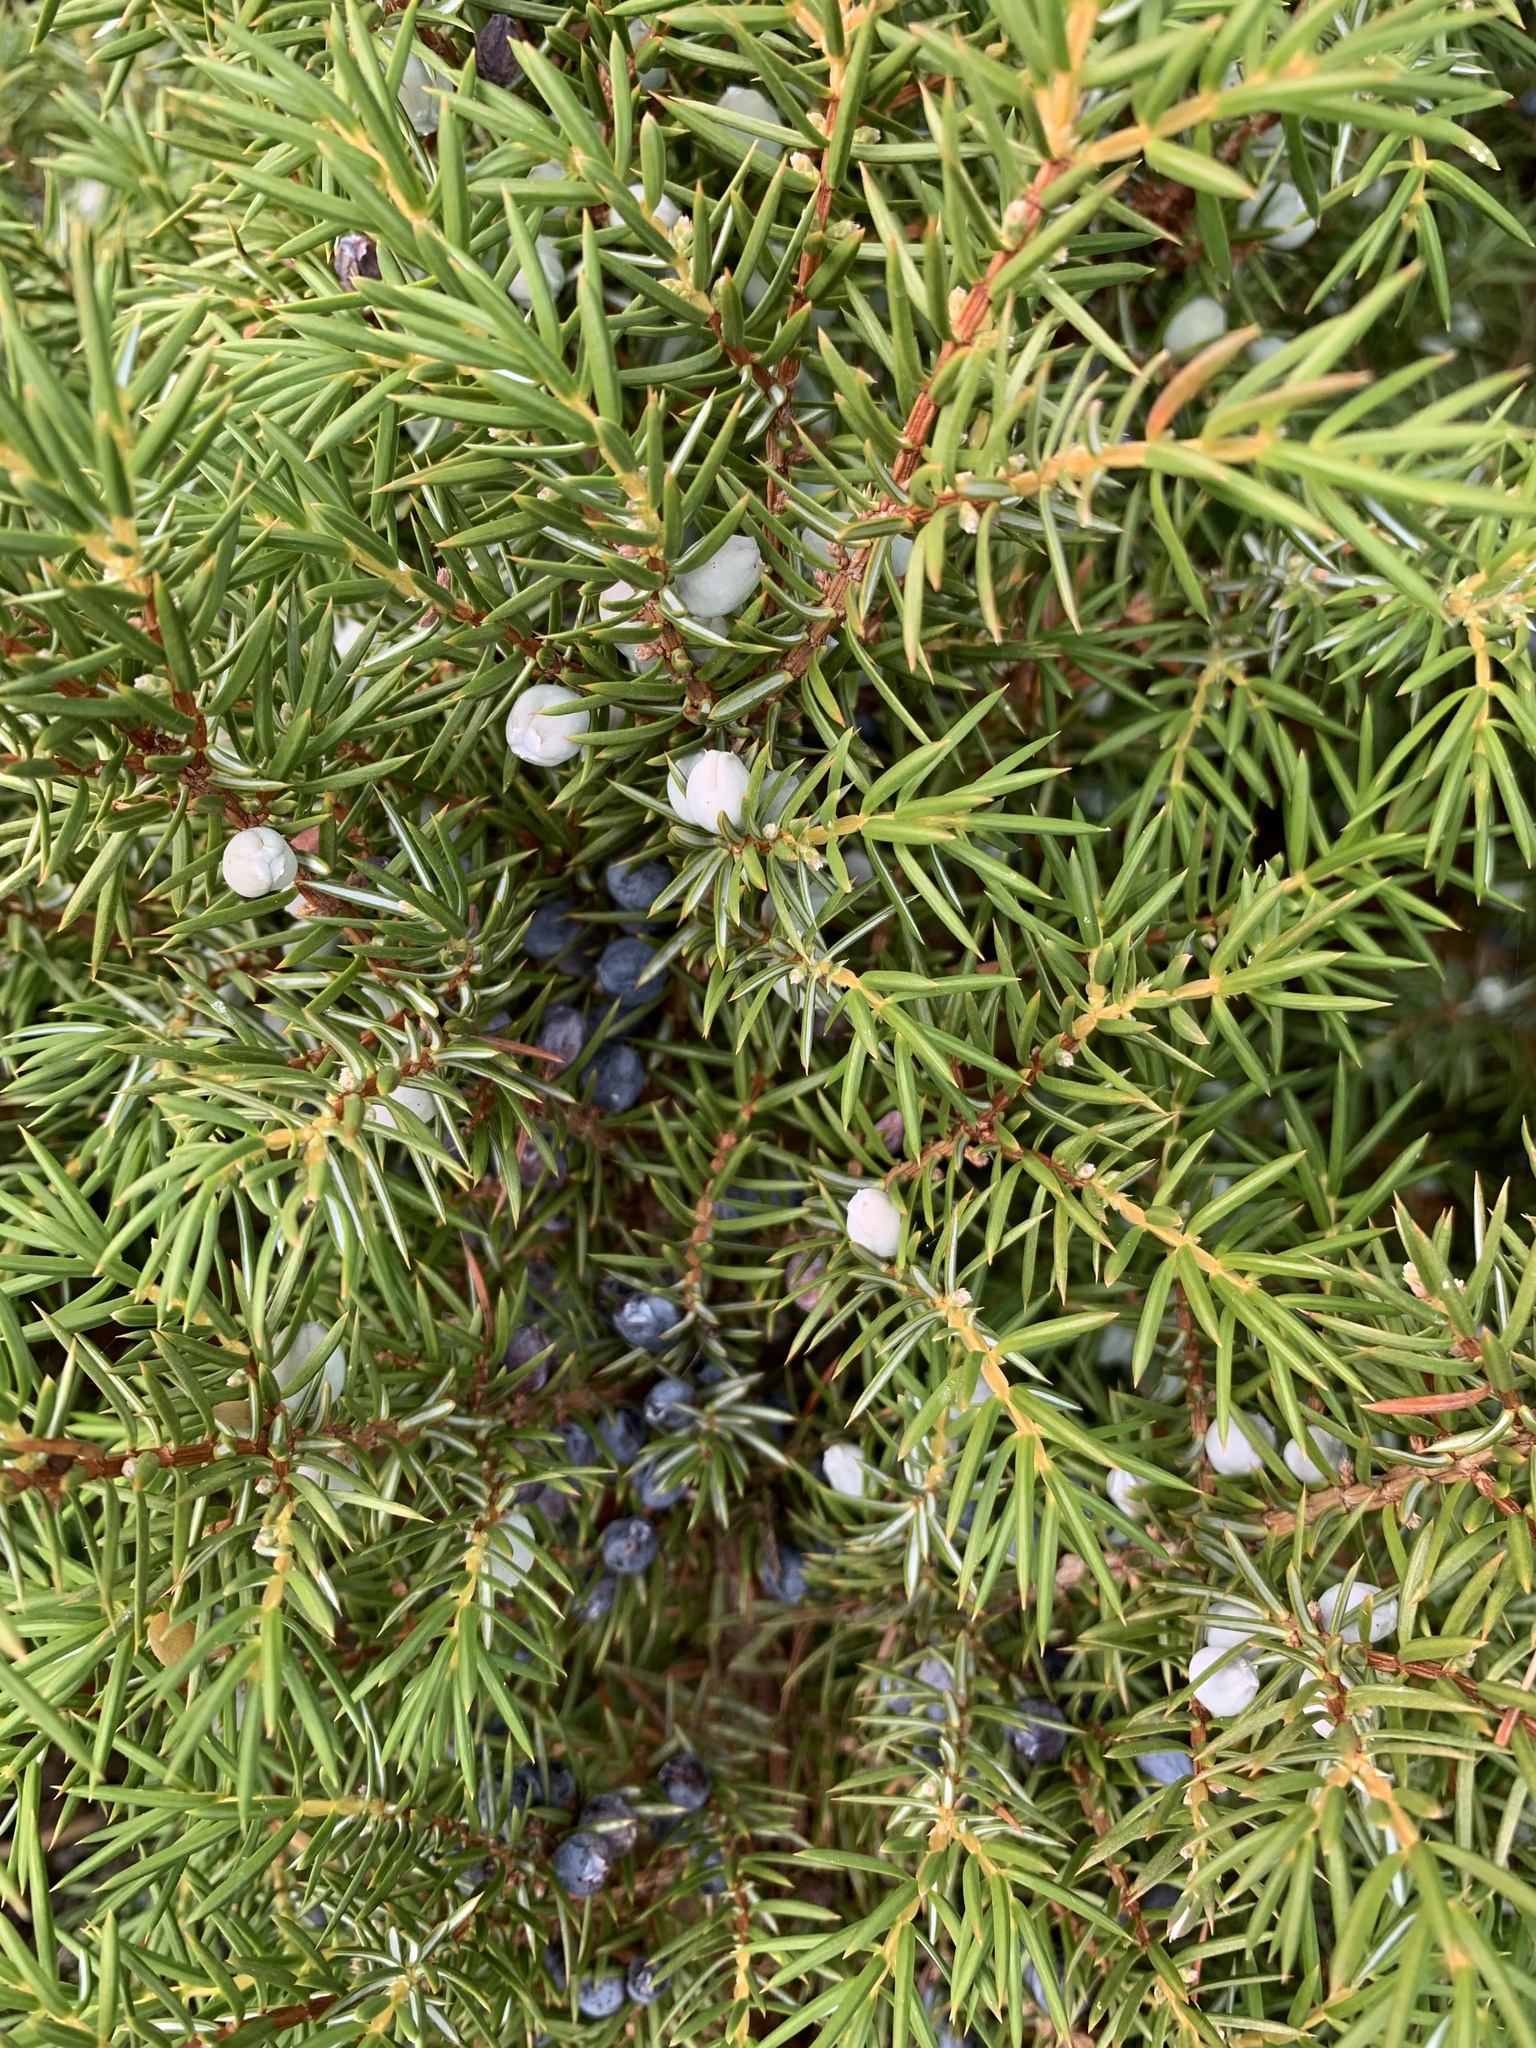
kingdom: Plantae
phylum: Tracheophyta
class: Pinopsida
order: Pinales
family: Cupressaceae
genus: Juniperus
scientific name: Juniperus communis
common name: Common juniper
